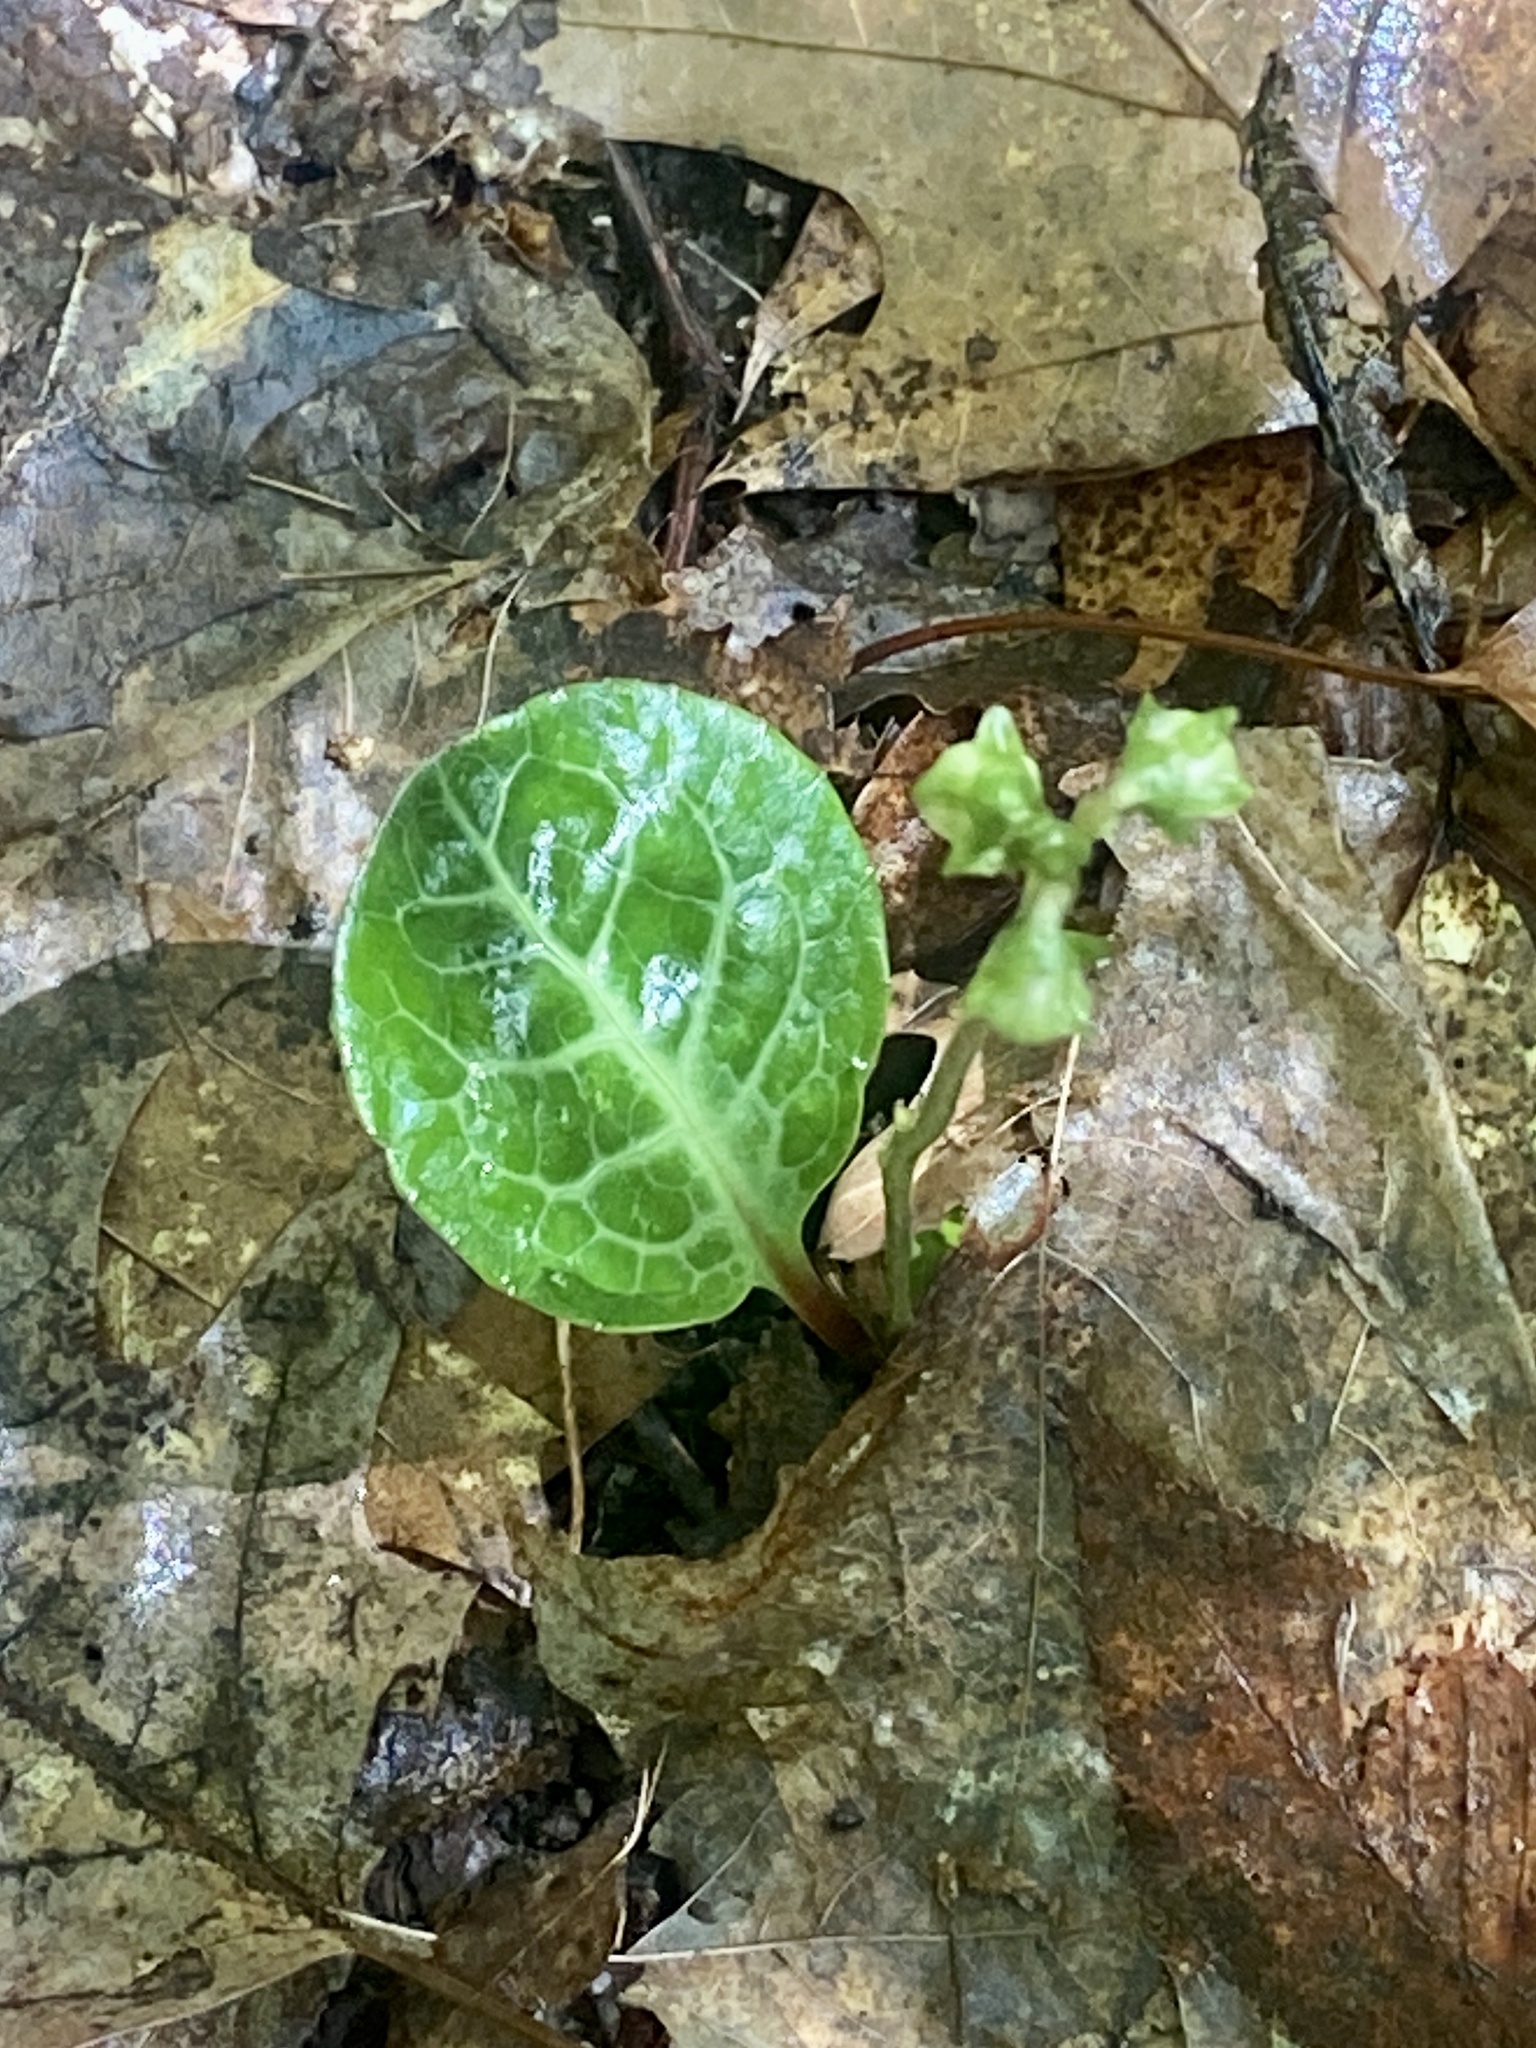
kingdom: Plantae
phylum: Tracheophyta
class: Magnoliopsida
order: Ericales
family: Ericaceae
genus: Pyrola
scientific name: Pyrola americana
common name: American wintergreen
